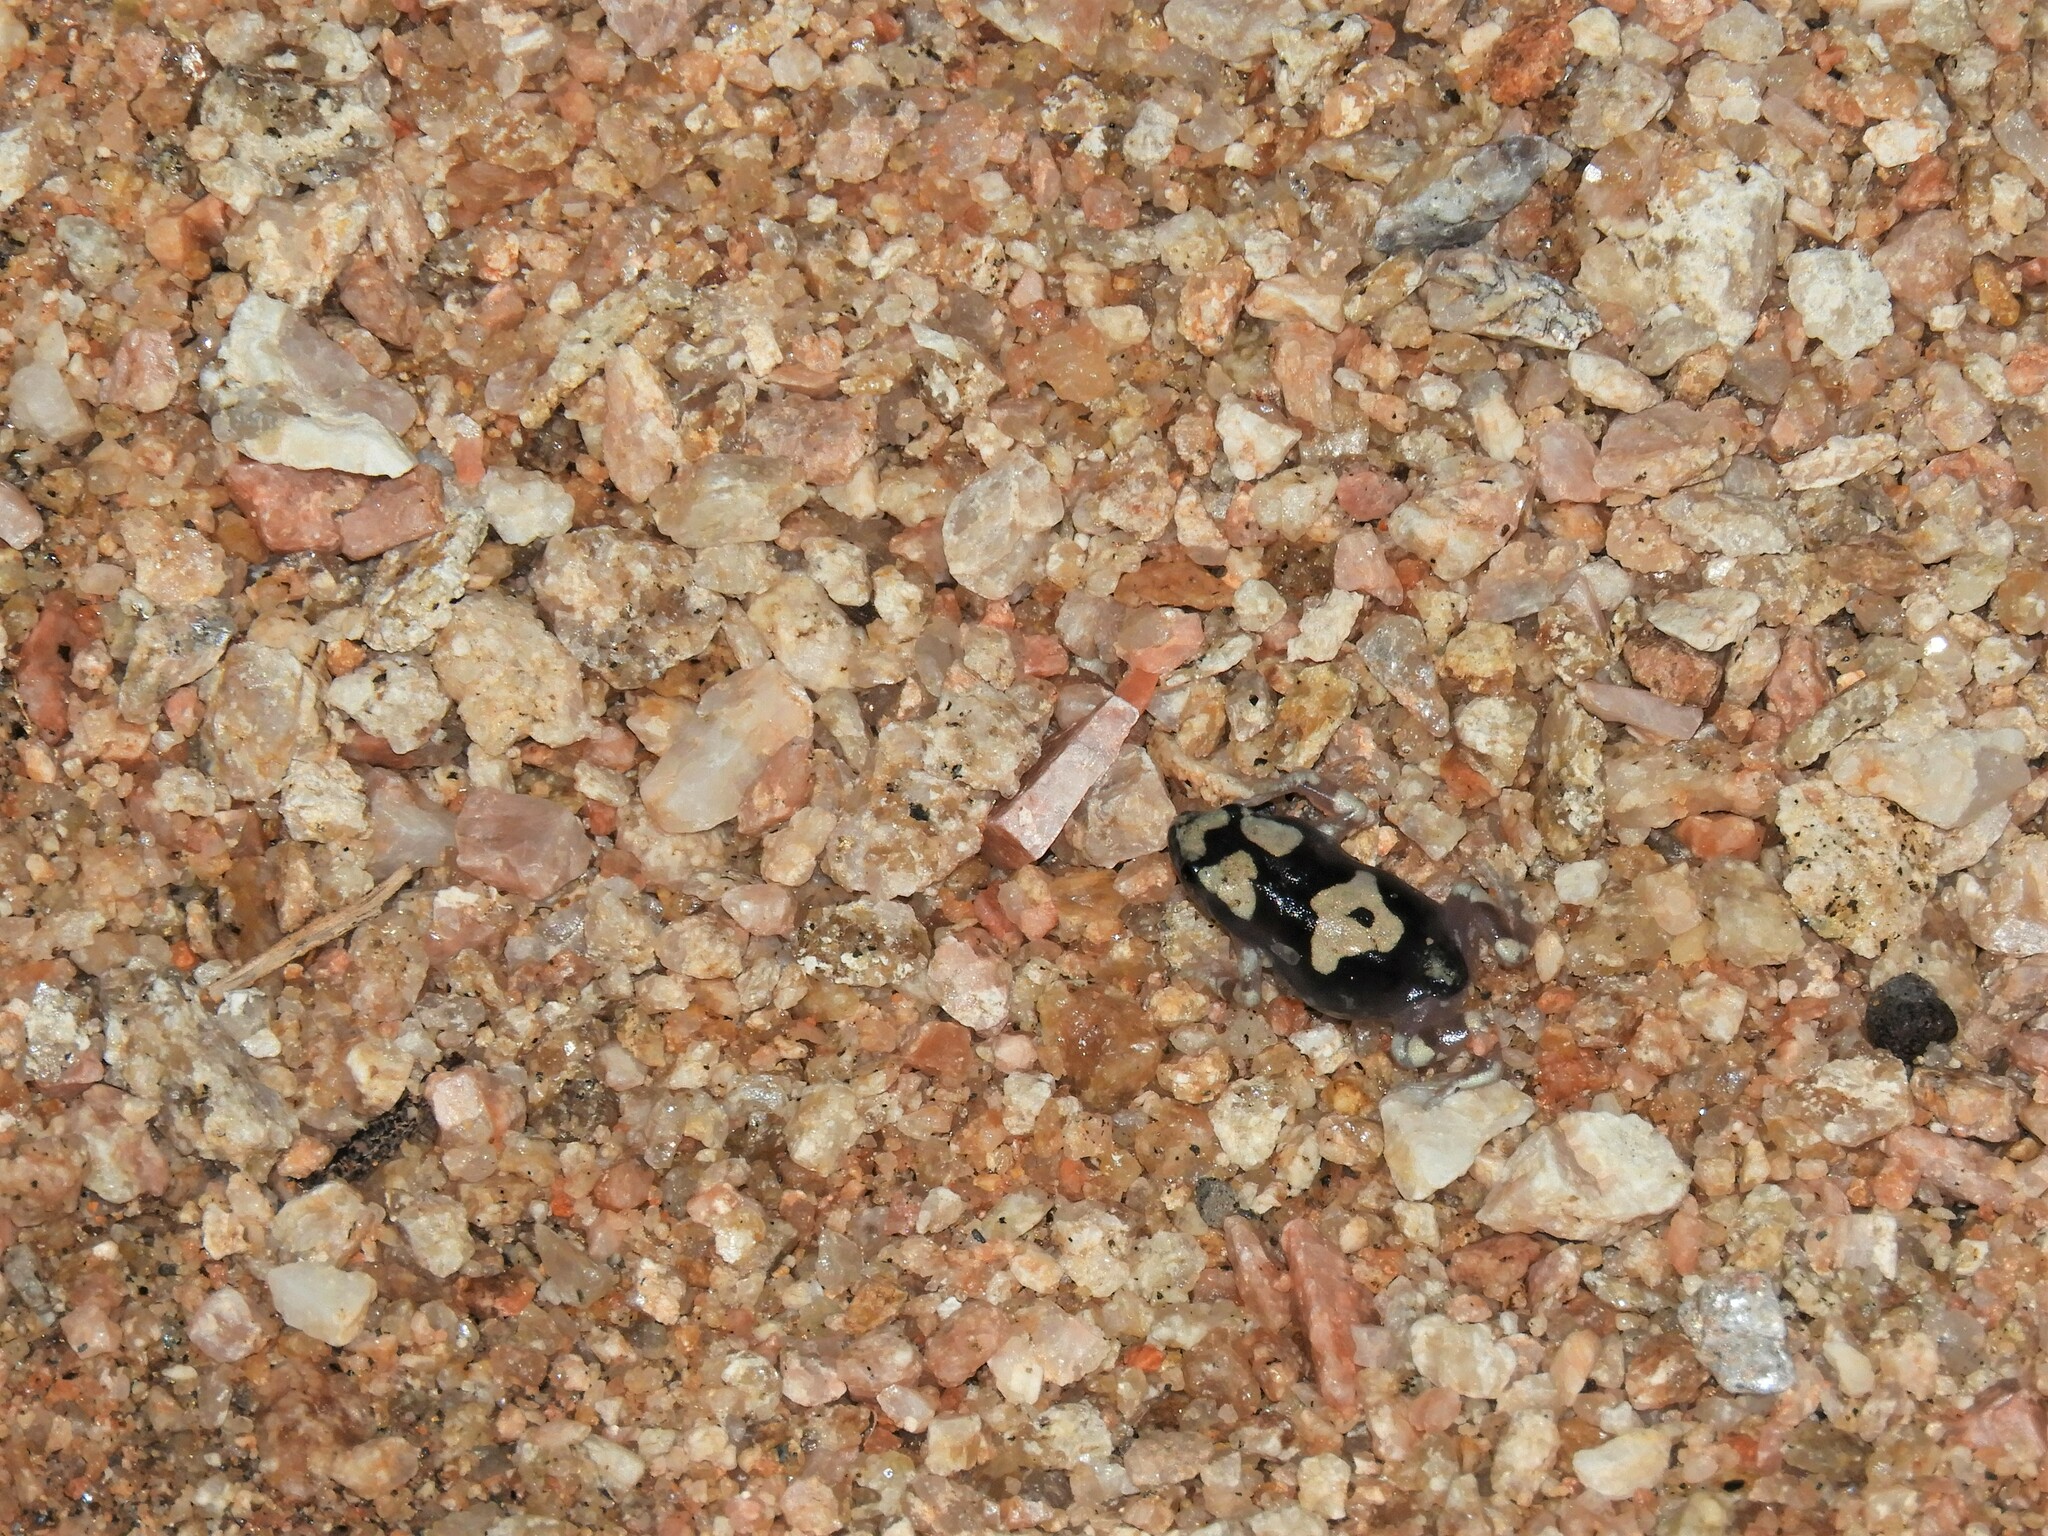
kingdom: Animalia
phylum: Chordata
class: Amphibia
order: Anura
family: Microhylidae
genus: Phrynomantis
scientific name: Phrynomantis annectens
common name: Marbled rubber frog
